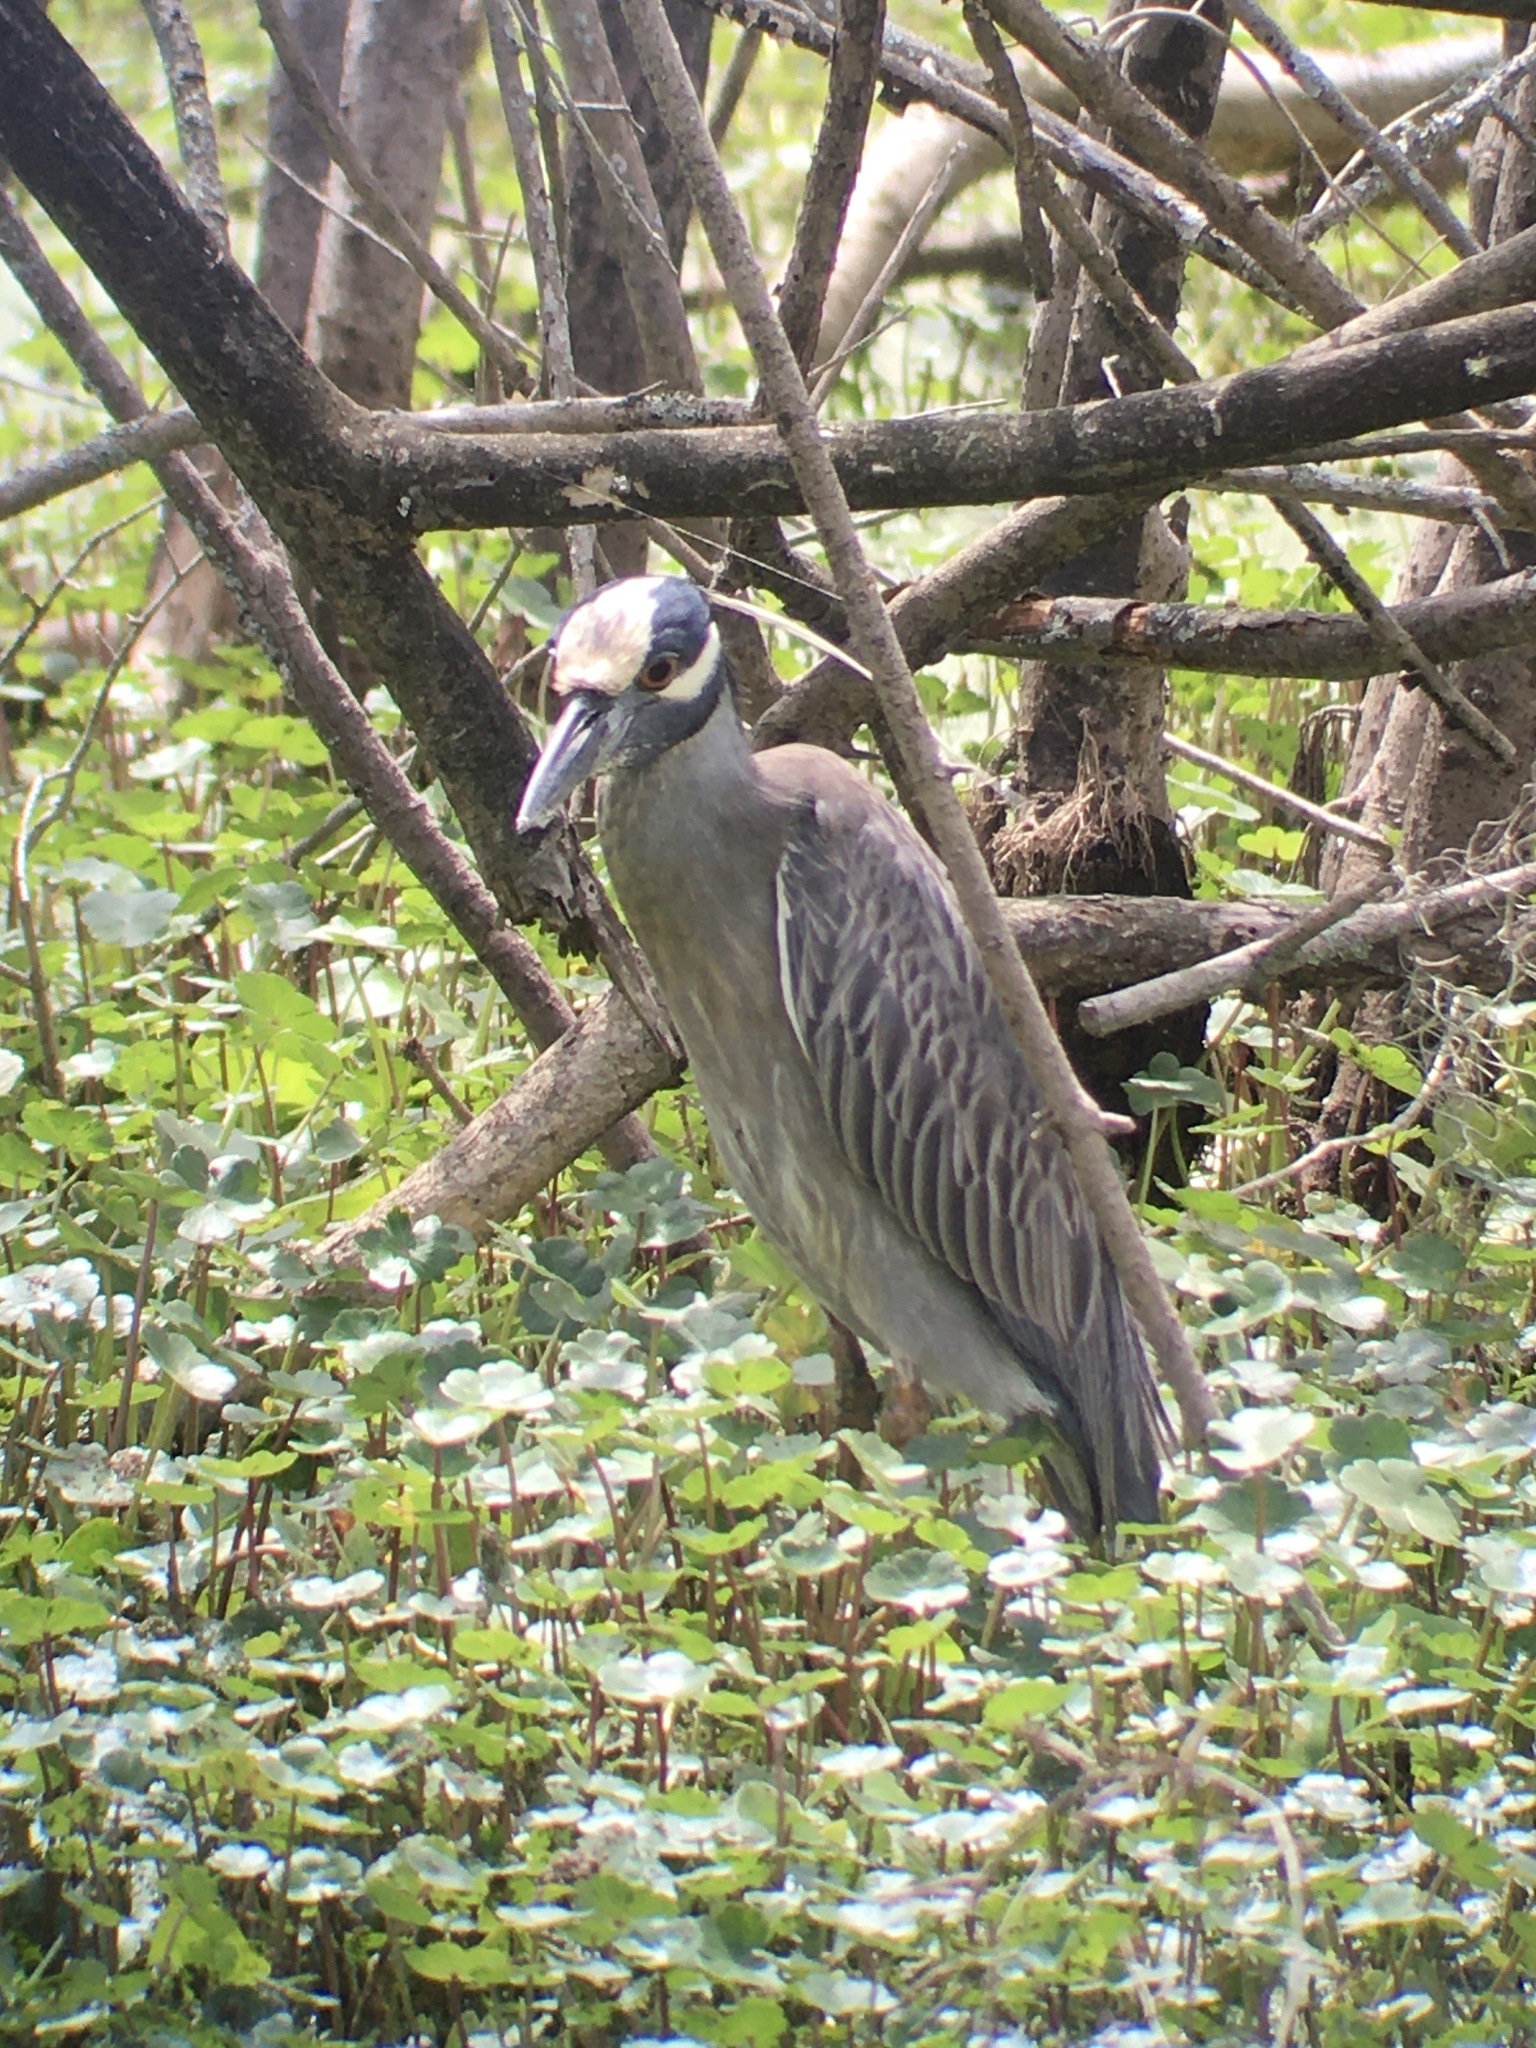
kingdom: Animalia
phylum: Chordata
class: Aves
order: Pelecaniformes
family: Ardeidae
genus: Nyctanassa
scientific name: Nyctanassa violacea
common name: Yellow-crowned night heron
